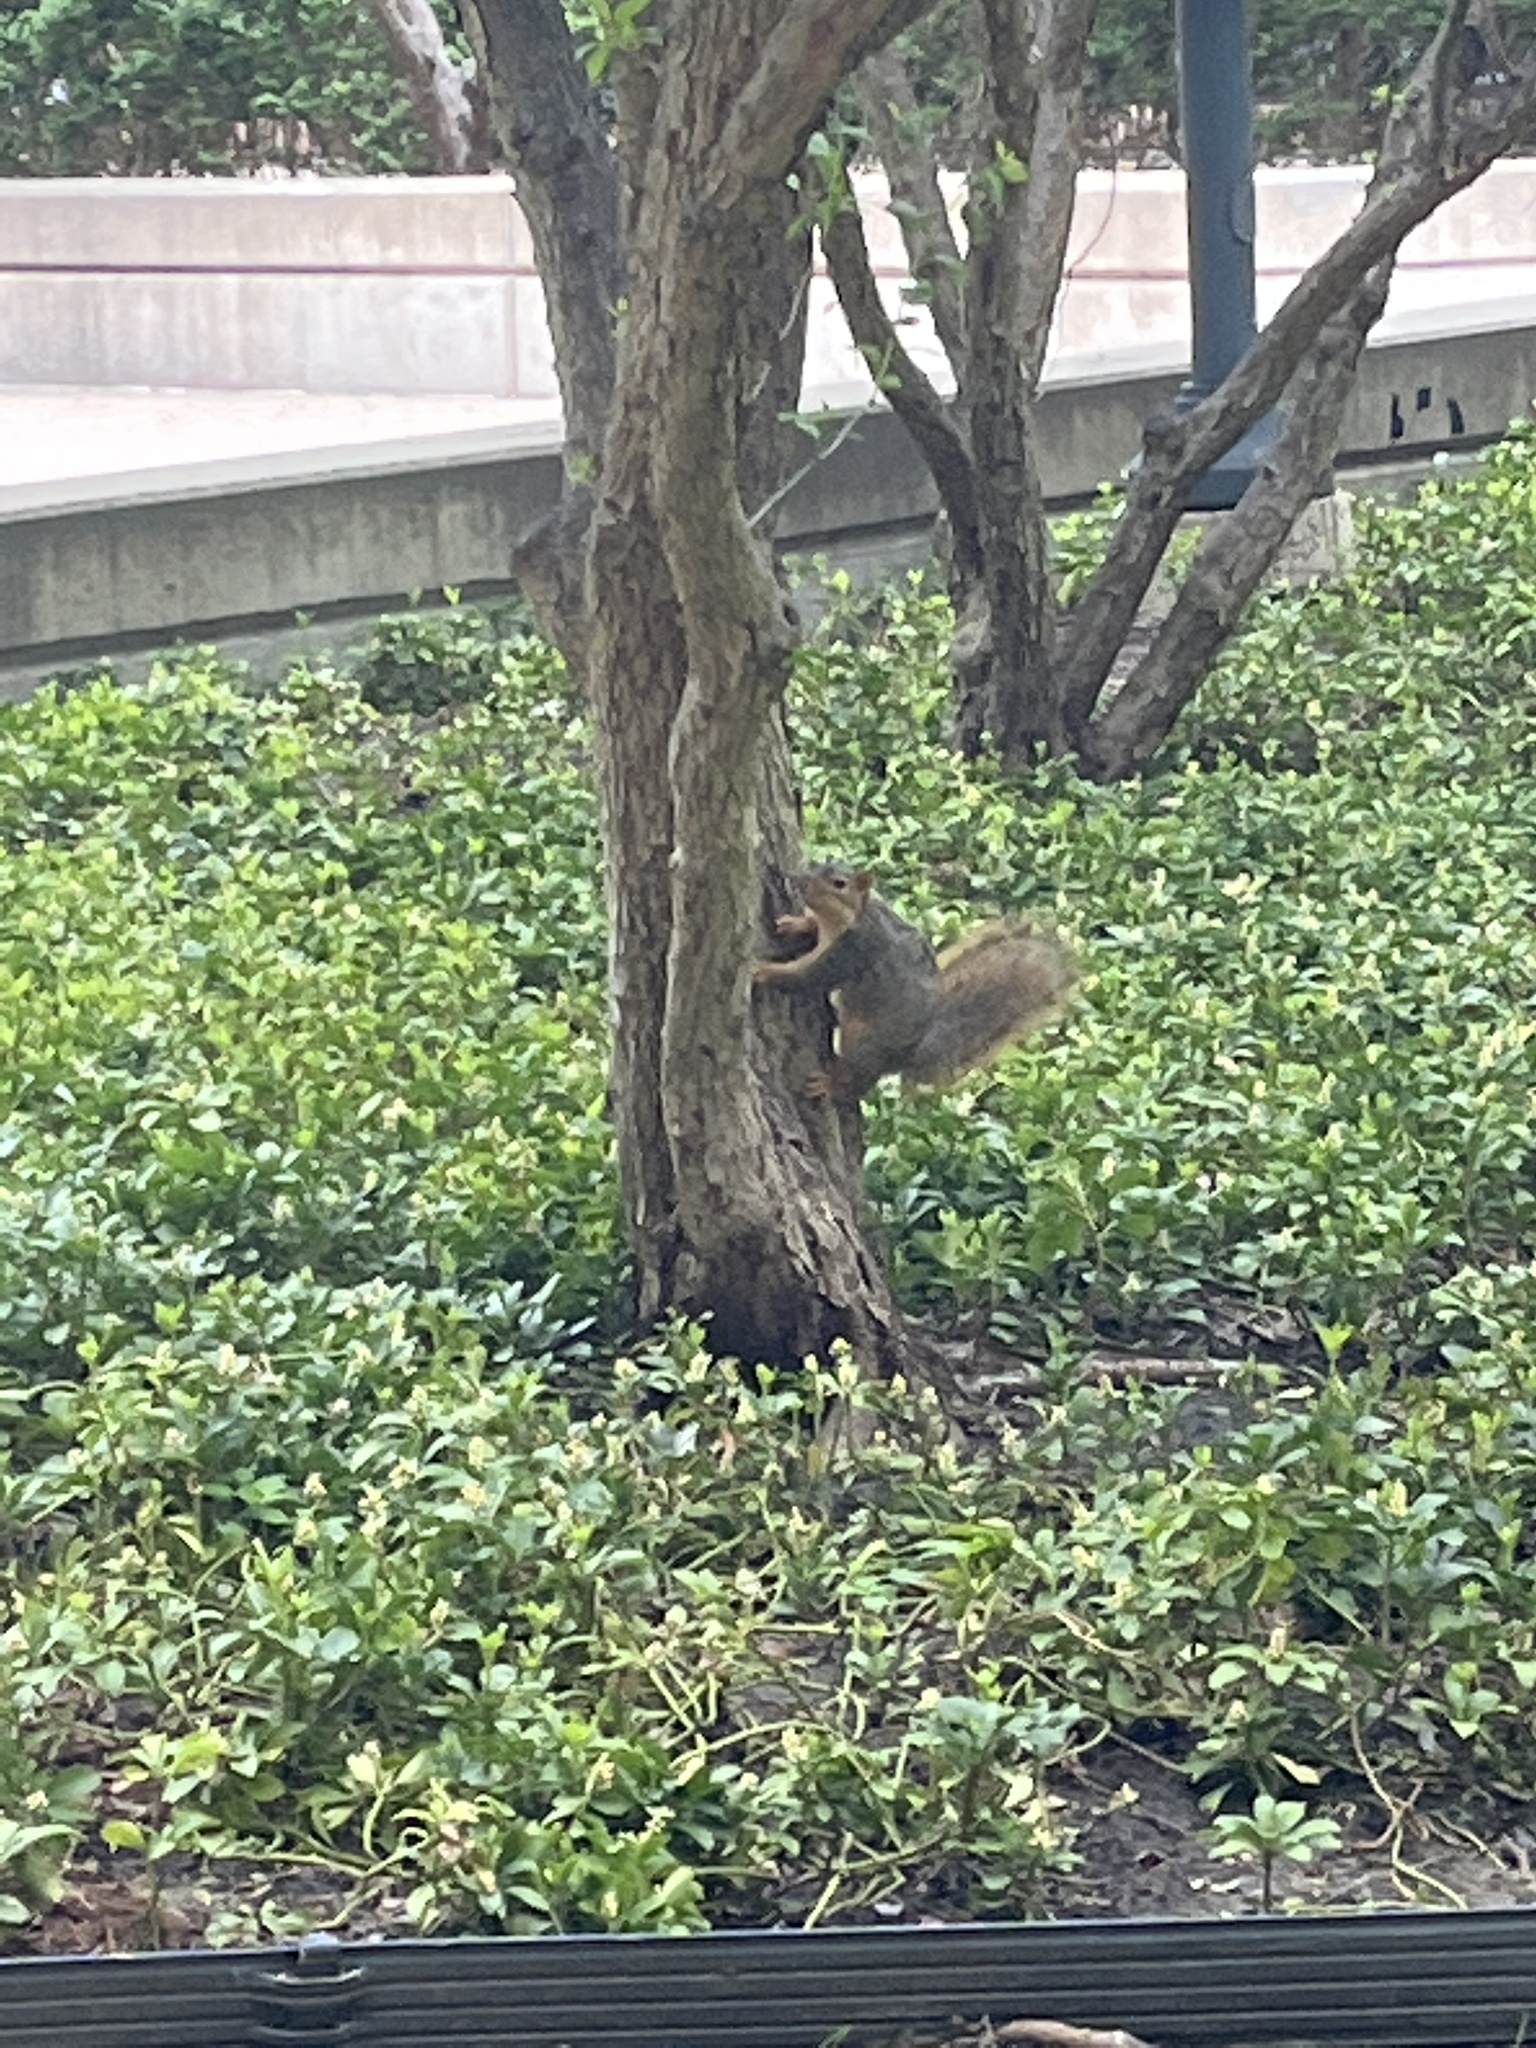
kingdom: Animalia
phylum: Chordata
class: Mammalia
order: Rodentia
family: Sciuridae
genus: Sciurus
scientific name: Sciurus niger
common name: Fox squirrel
